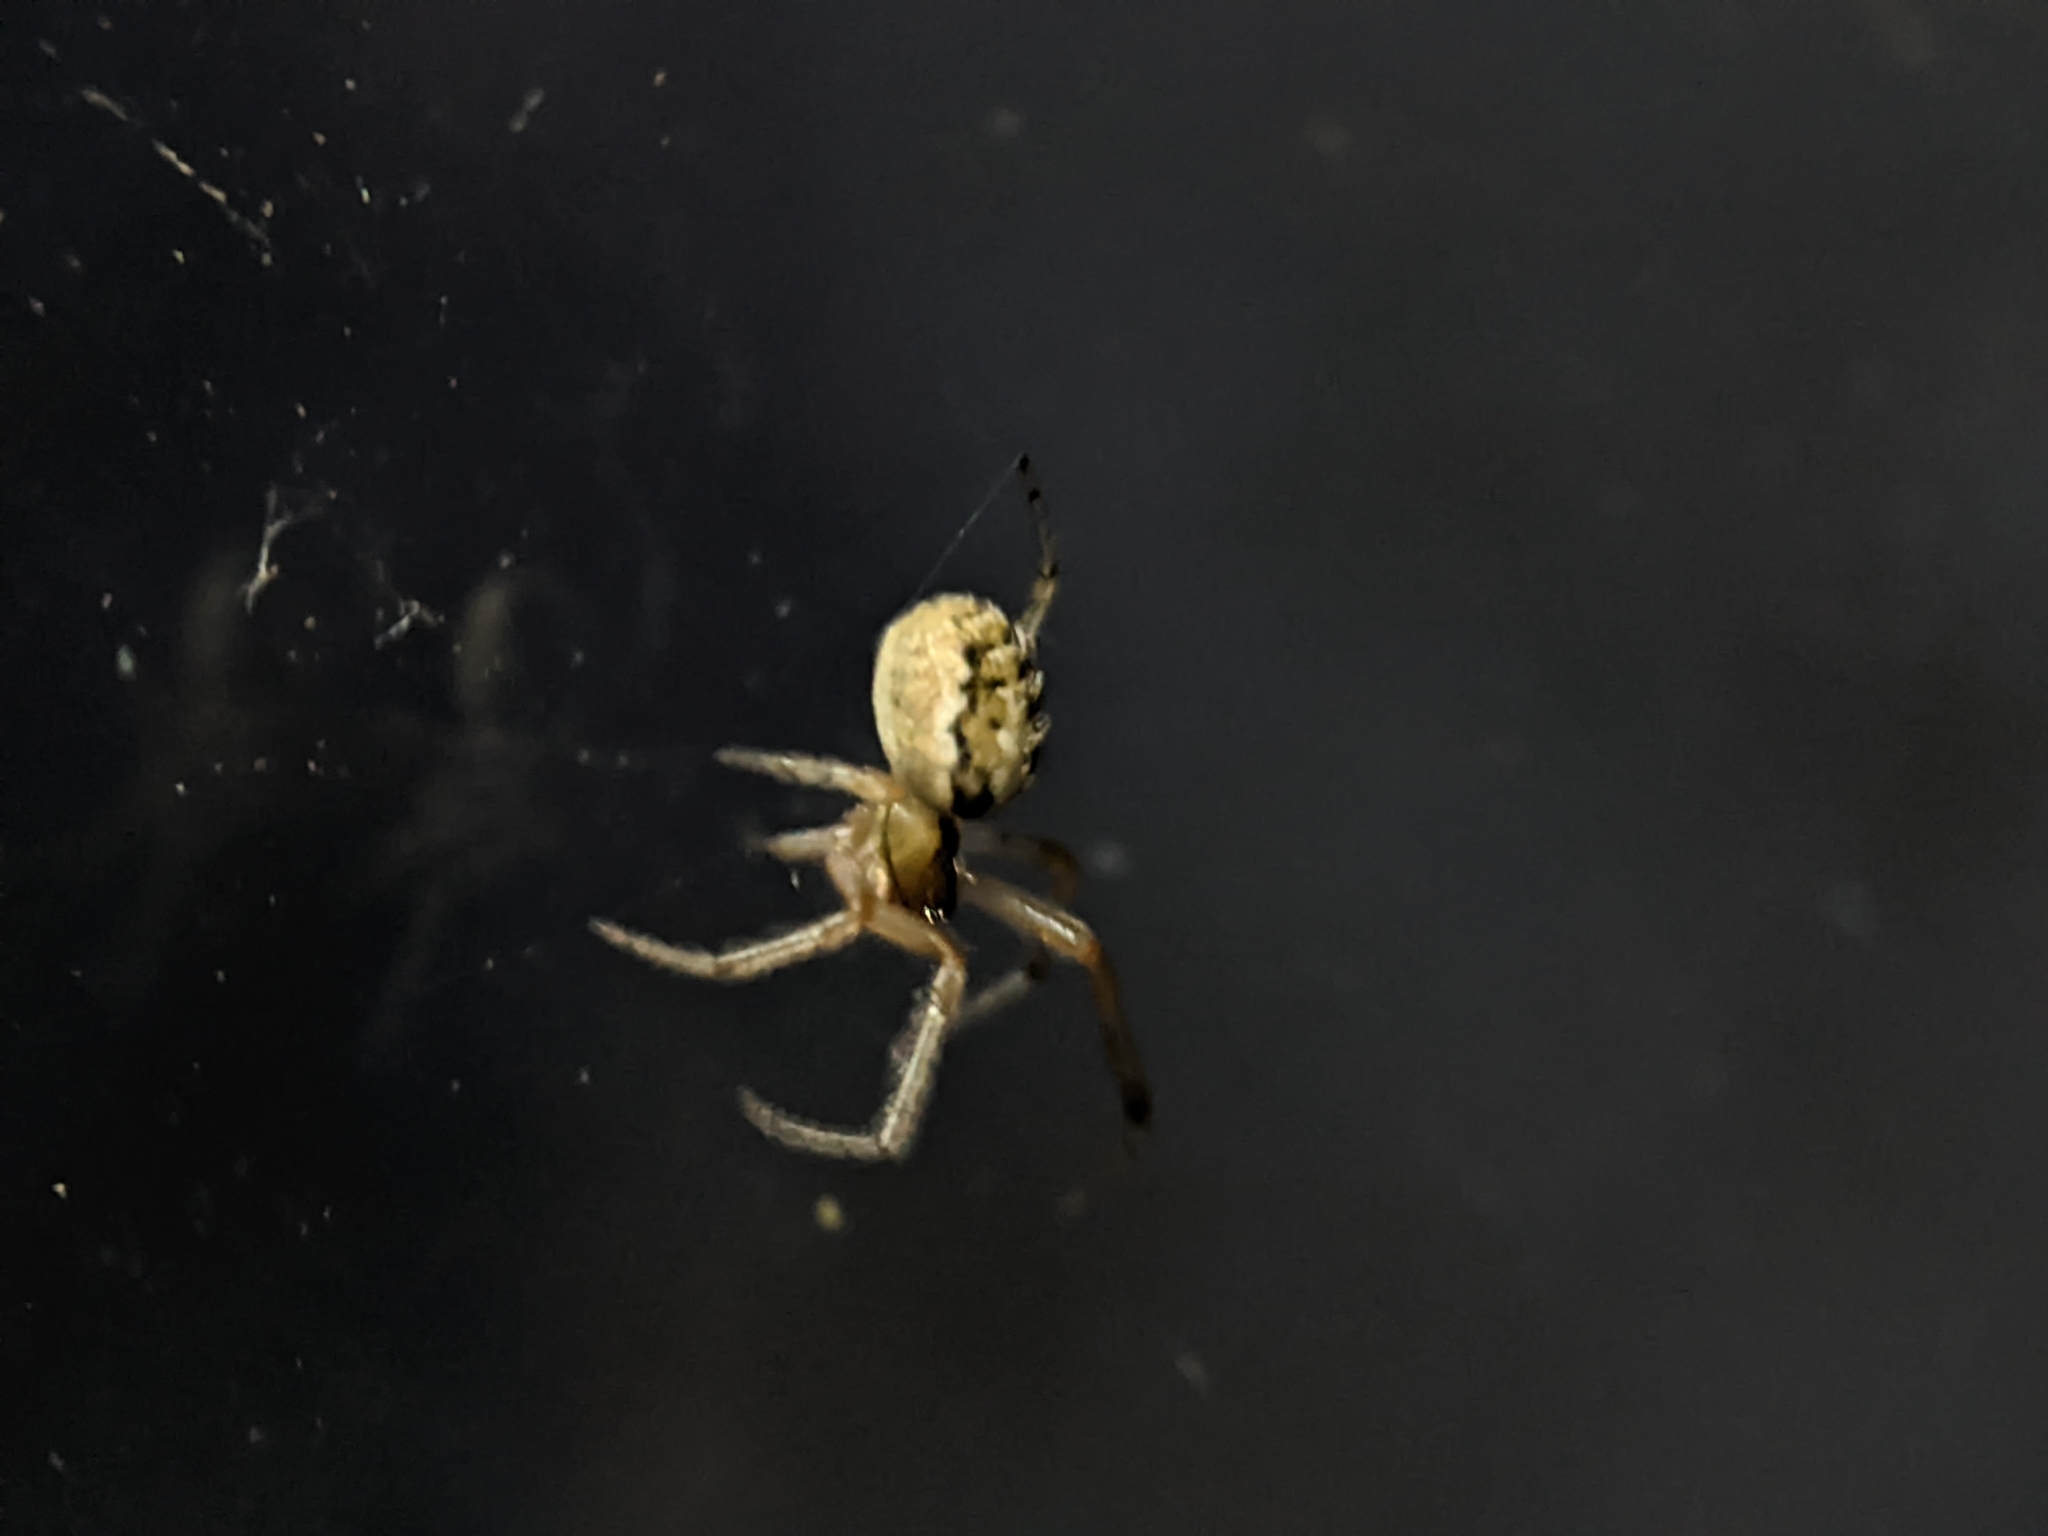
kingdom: Animalia
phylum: Arthropoda
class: Arachnida
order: Araneae
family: Araneidae
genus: Zygiella
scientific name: Zygiella x-notata
